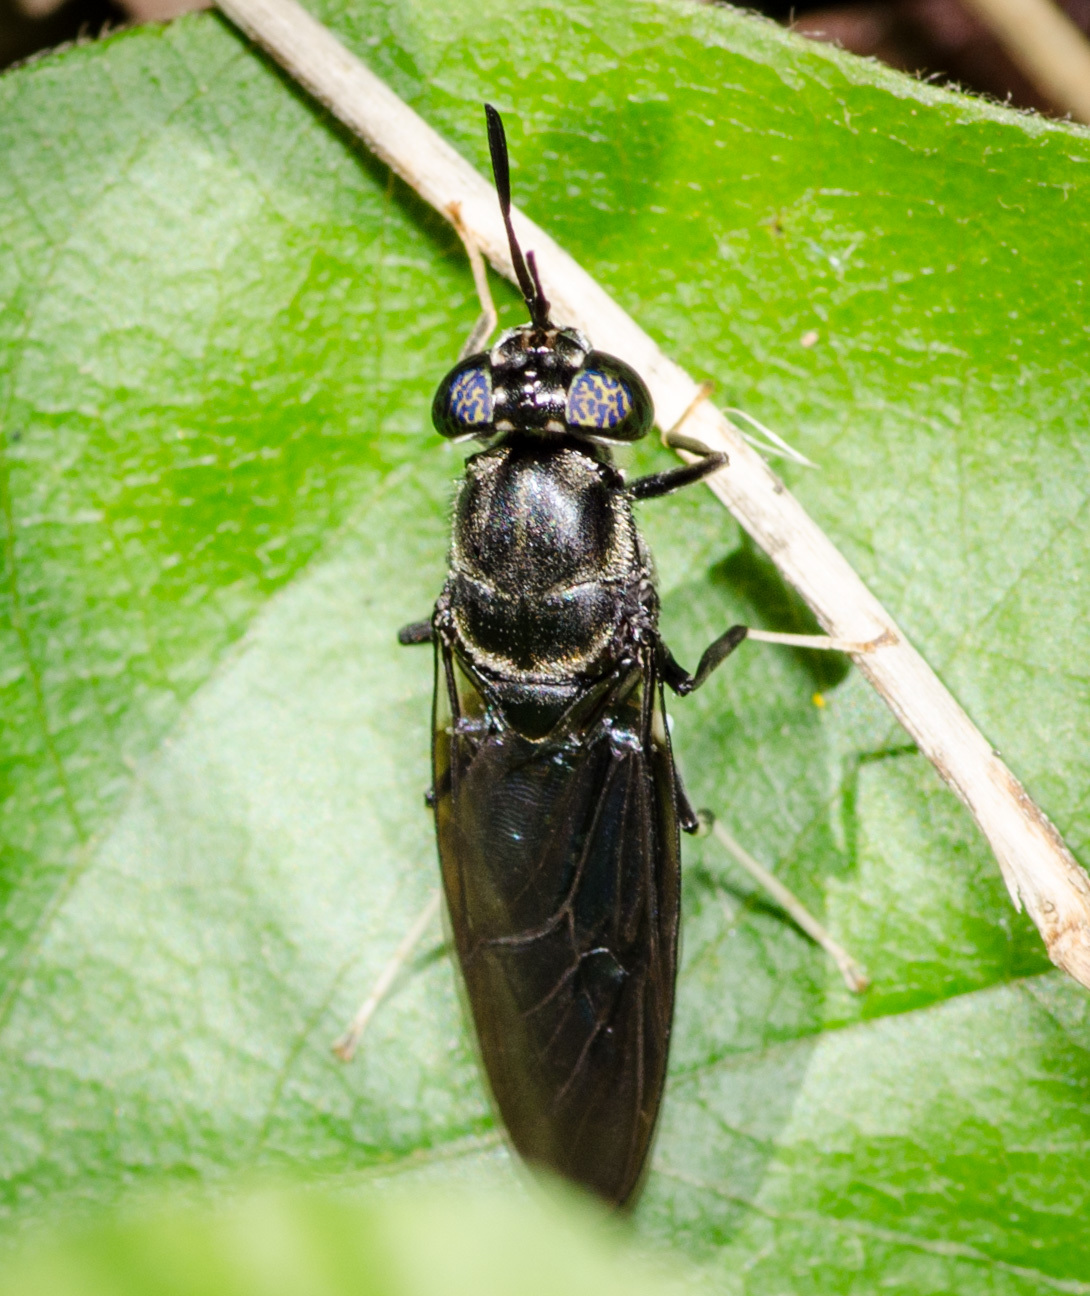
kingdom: Animalia
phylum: Arthropoda
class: Insecta
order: Diptera
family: Stratiomyidae
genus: Hermetia
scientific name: Hermetia illucens
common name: Black soldier fly
